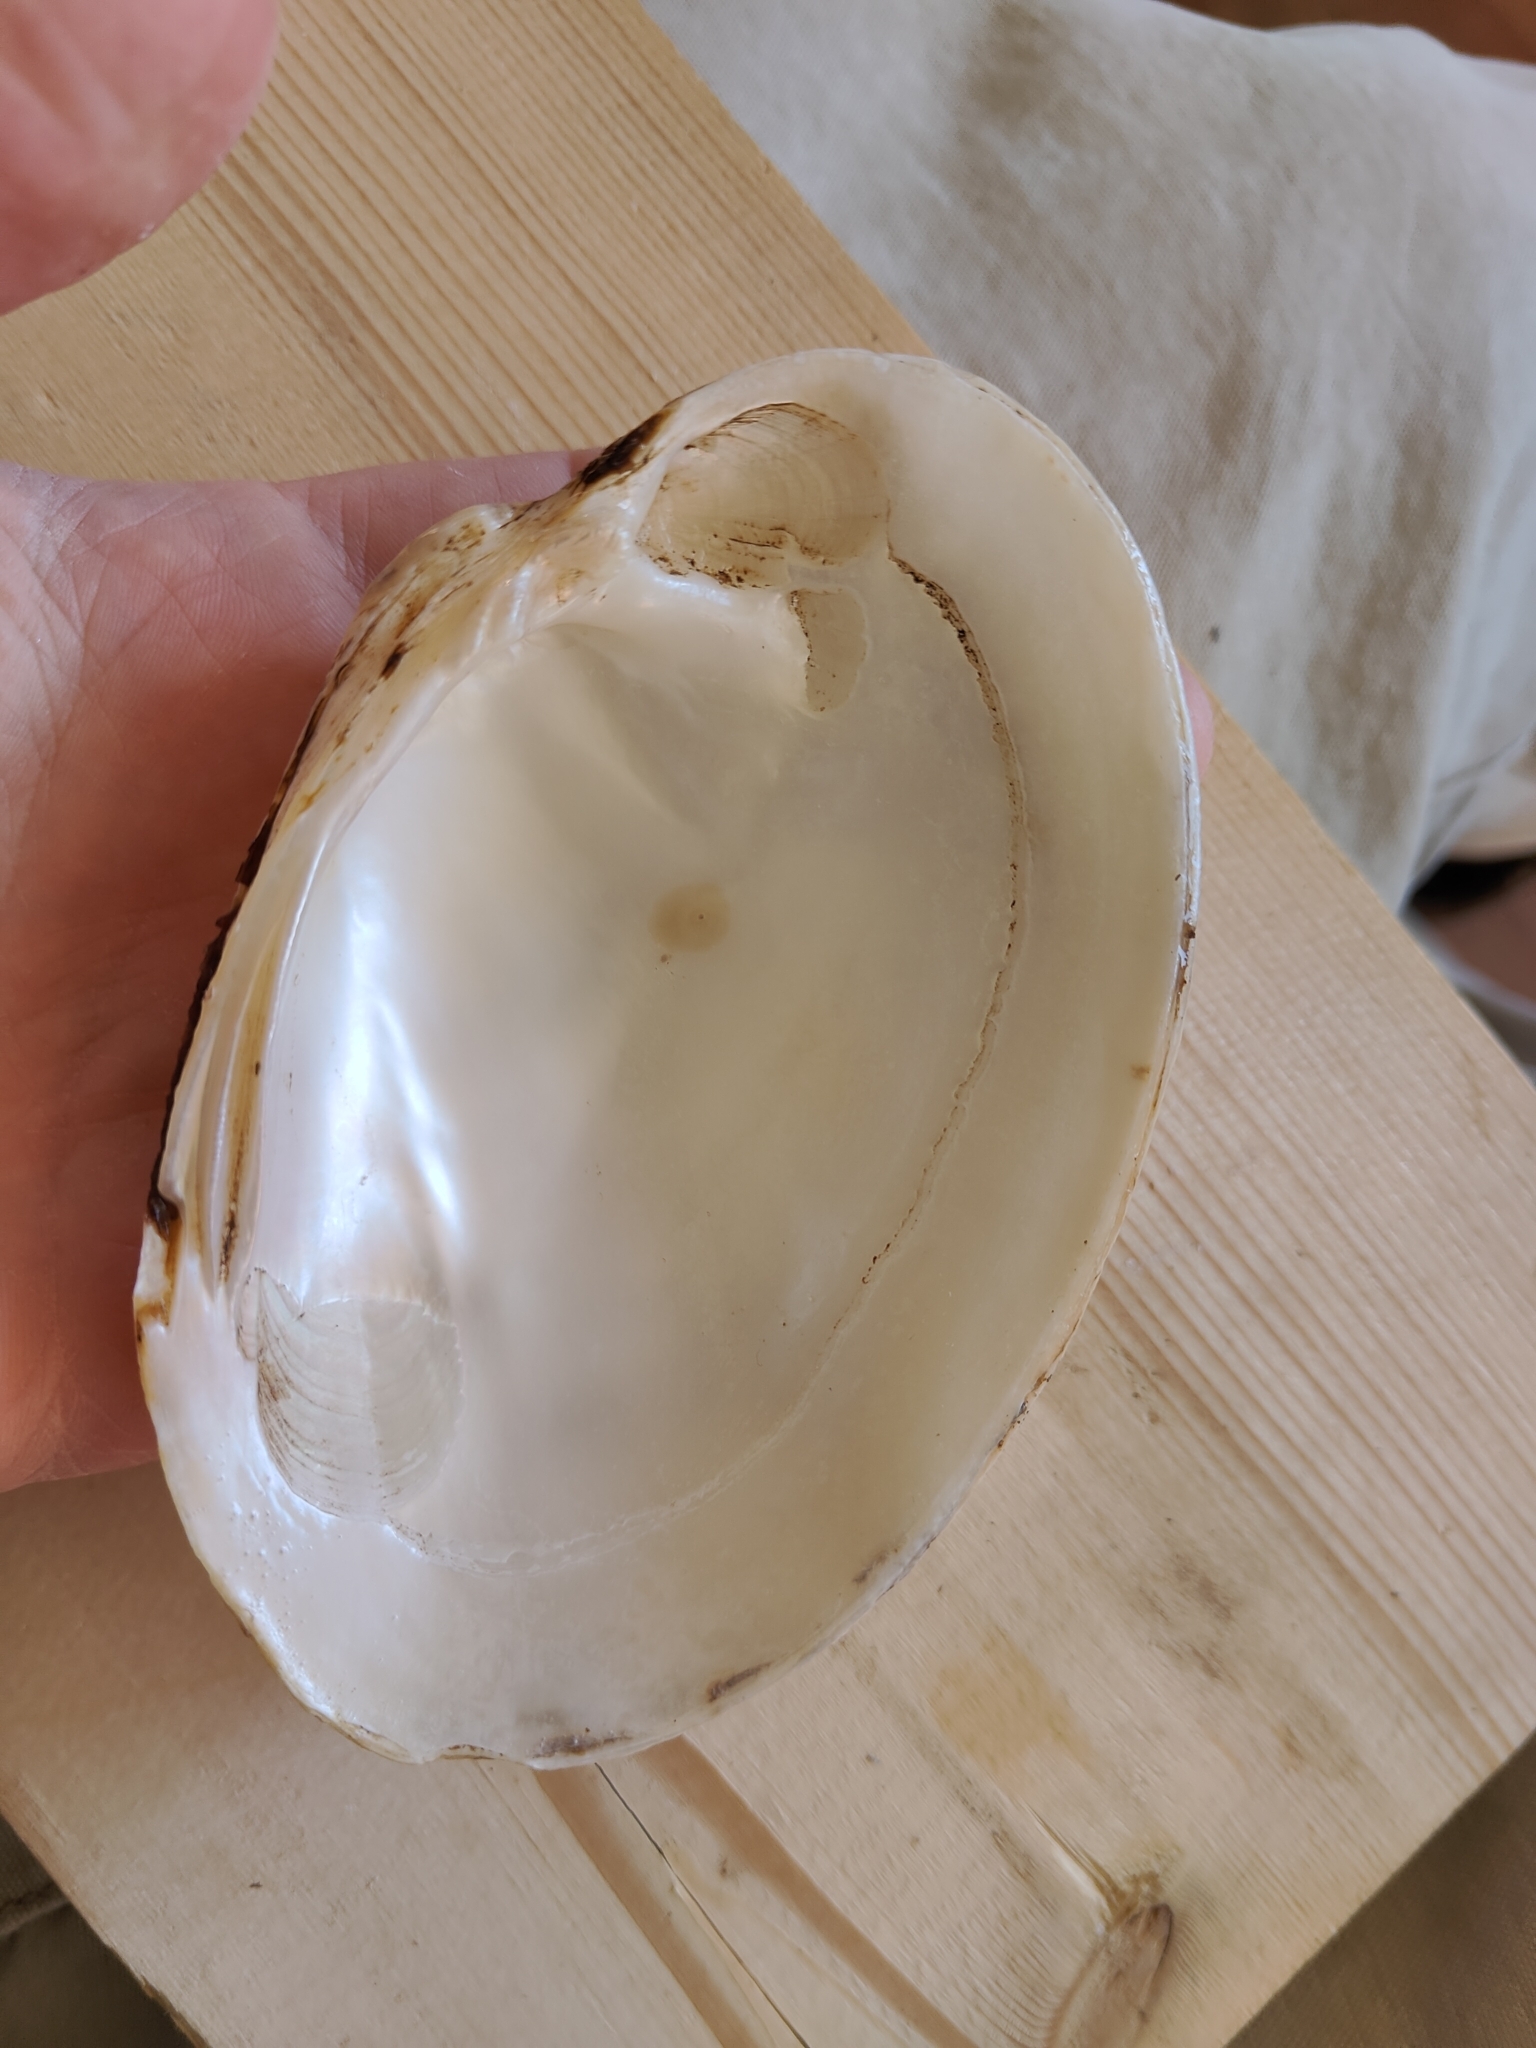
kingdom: Animalia
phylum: Mollusca
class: Bivalvia
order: Unionida
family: Unionidae
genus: Lampsilis
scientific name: Lampsilis cardium
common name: Plain pocketbook
